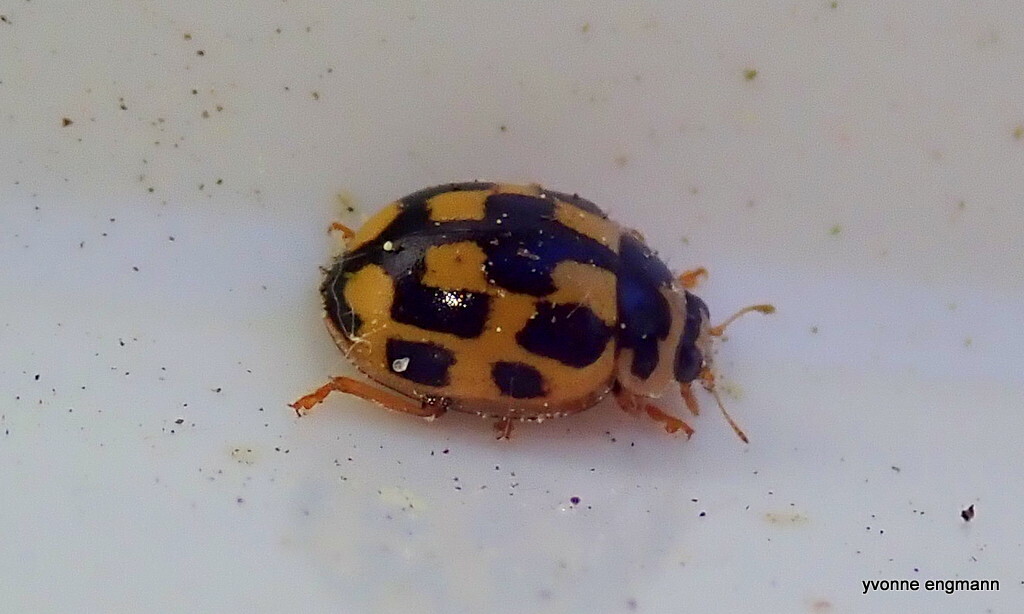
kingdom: Animalia
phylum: Arthropoda
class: Insecta
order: Coleoptera
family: Coccinellidae
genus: Propylaea
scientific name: Propylaea quatuordecimpunctata
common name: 14-spotted ladybird beetle
